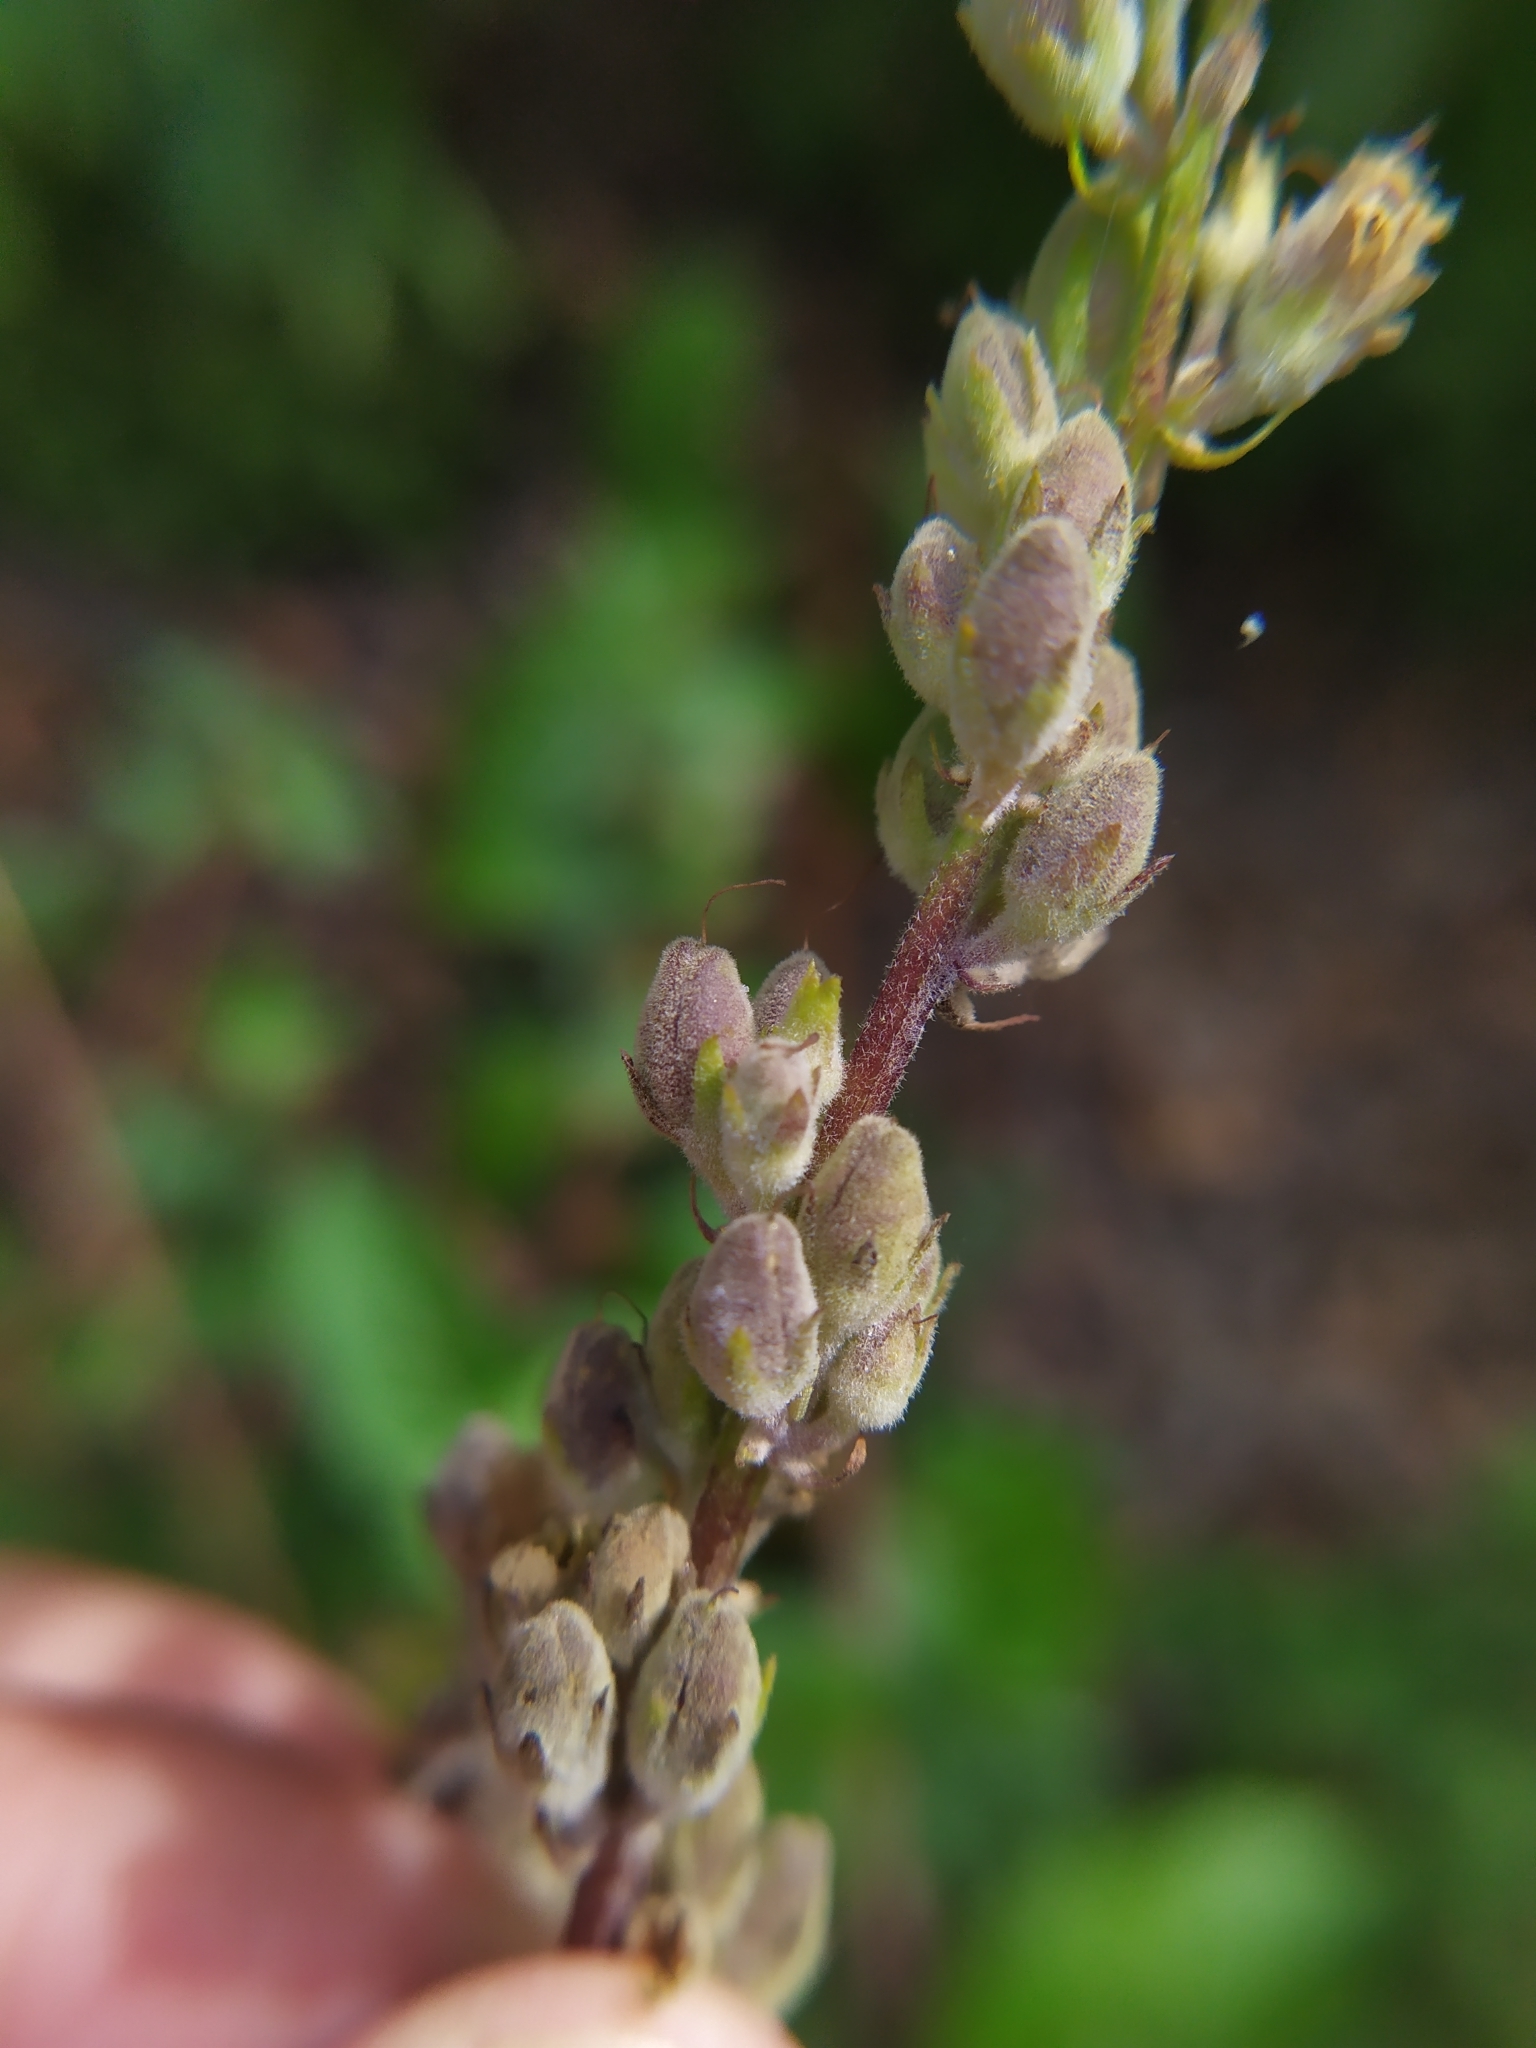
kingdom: Plantae
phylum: Tracheophyta
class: Magnoliopsida
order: Lamiales
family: Scrophulariaceae
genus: Verbascum
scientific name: Verbascum chaixii
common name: Nettle-leaved mullein
